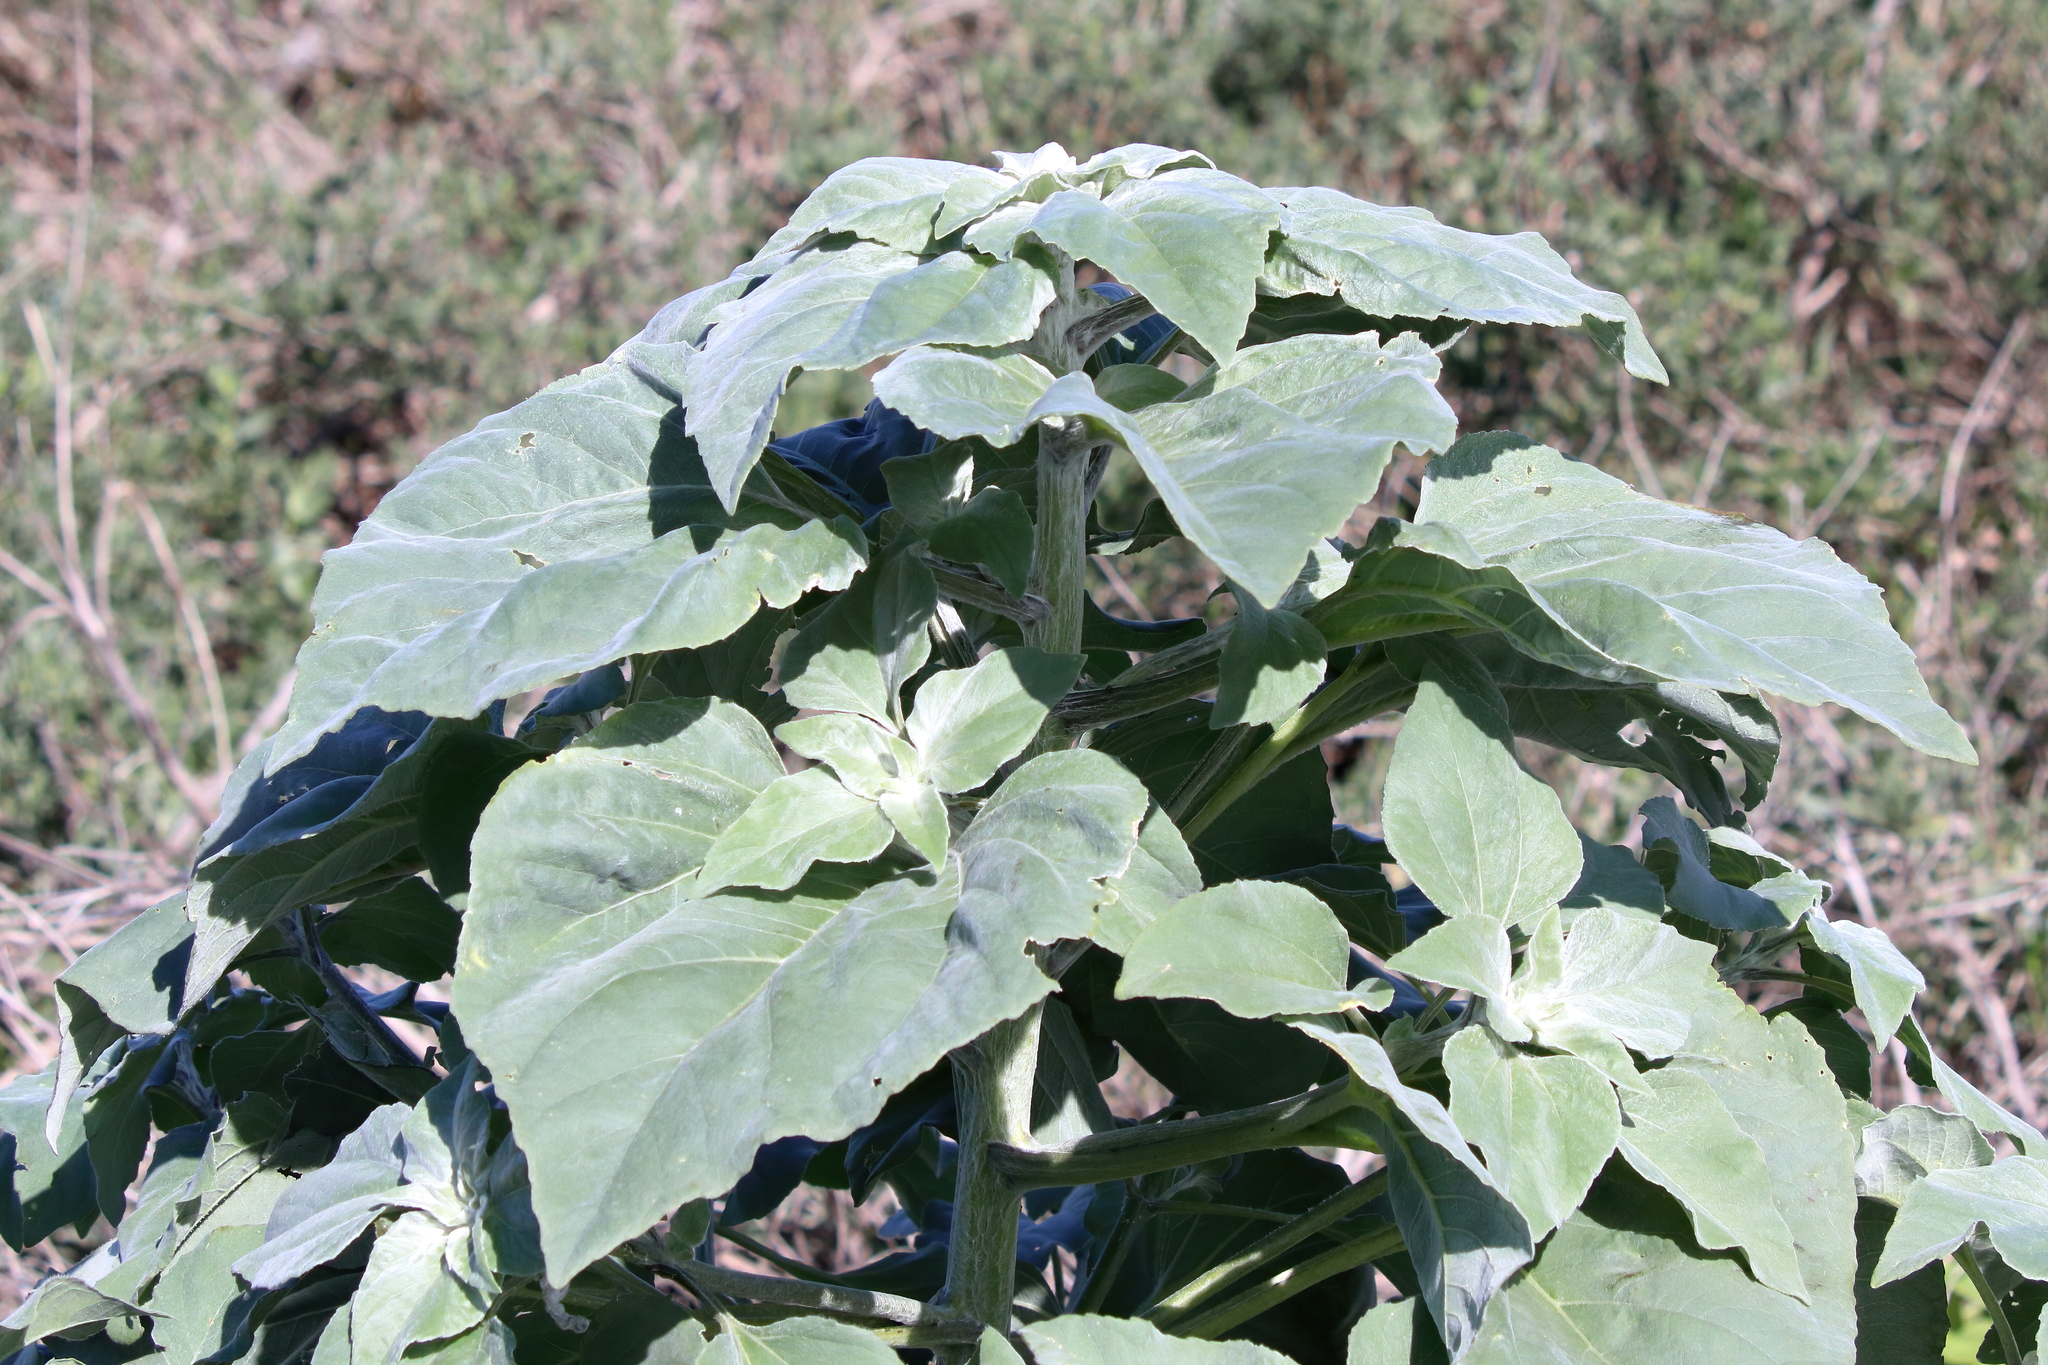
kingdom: Plantae
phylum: Tracheophyta
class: Magnoliopsida
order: Asterales
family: Asteraceae
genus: Helianthus
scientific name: Helianthus argophyllus
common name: Silverleaf sunflower
